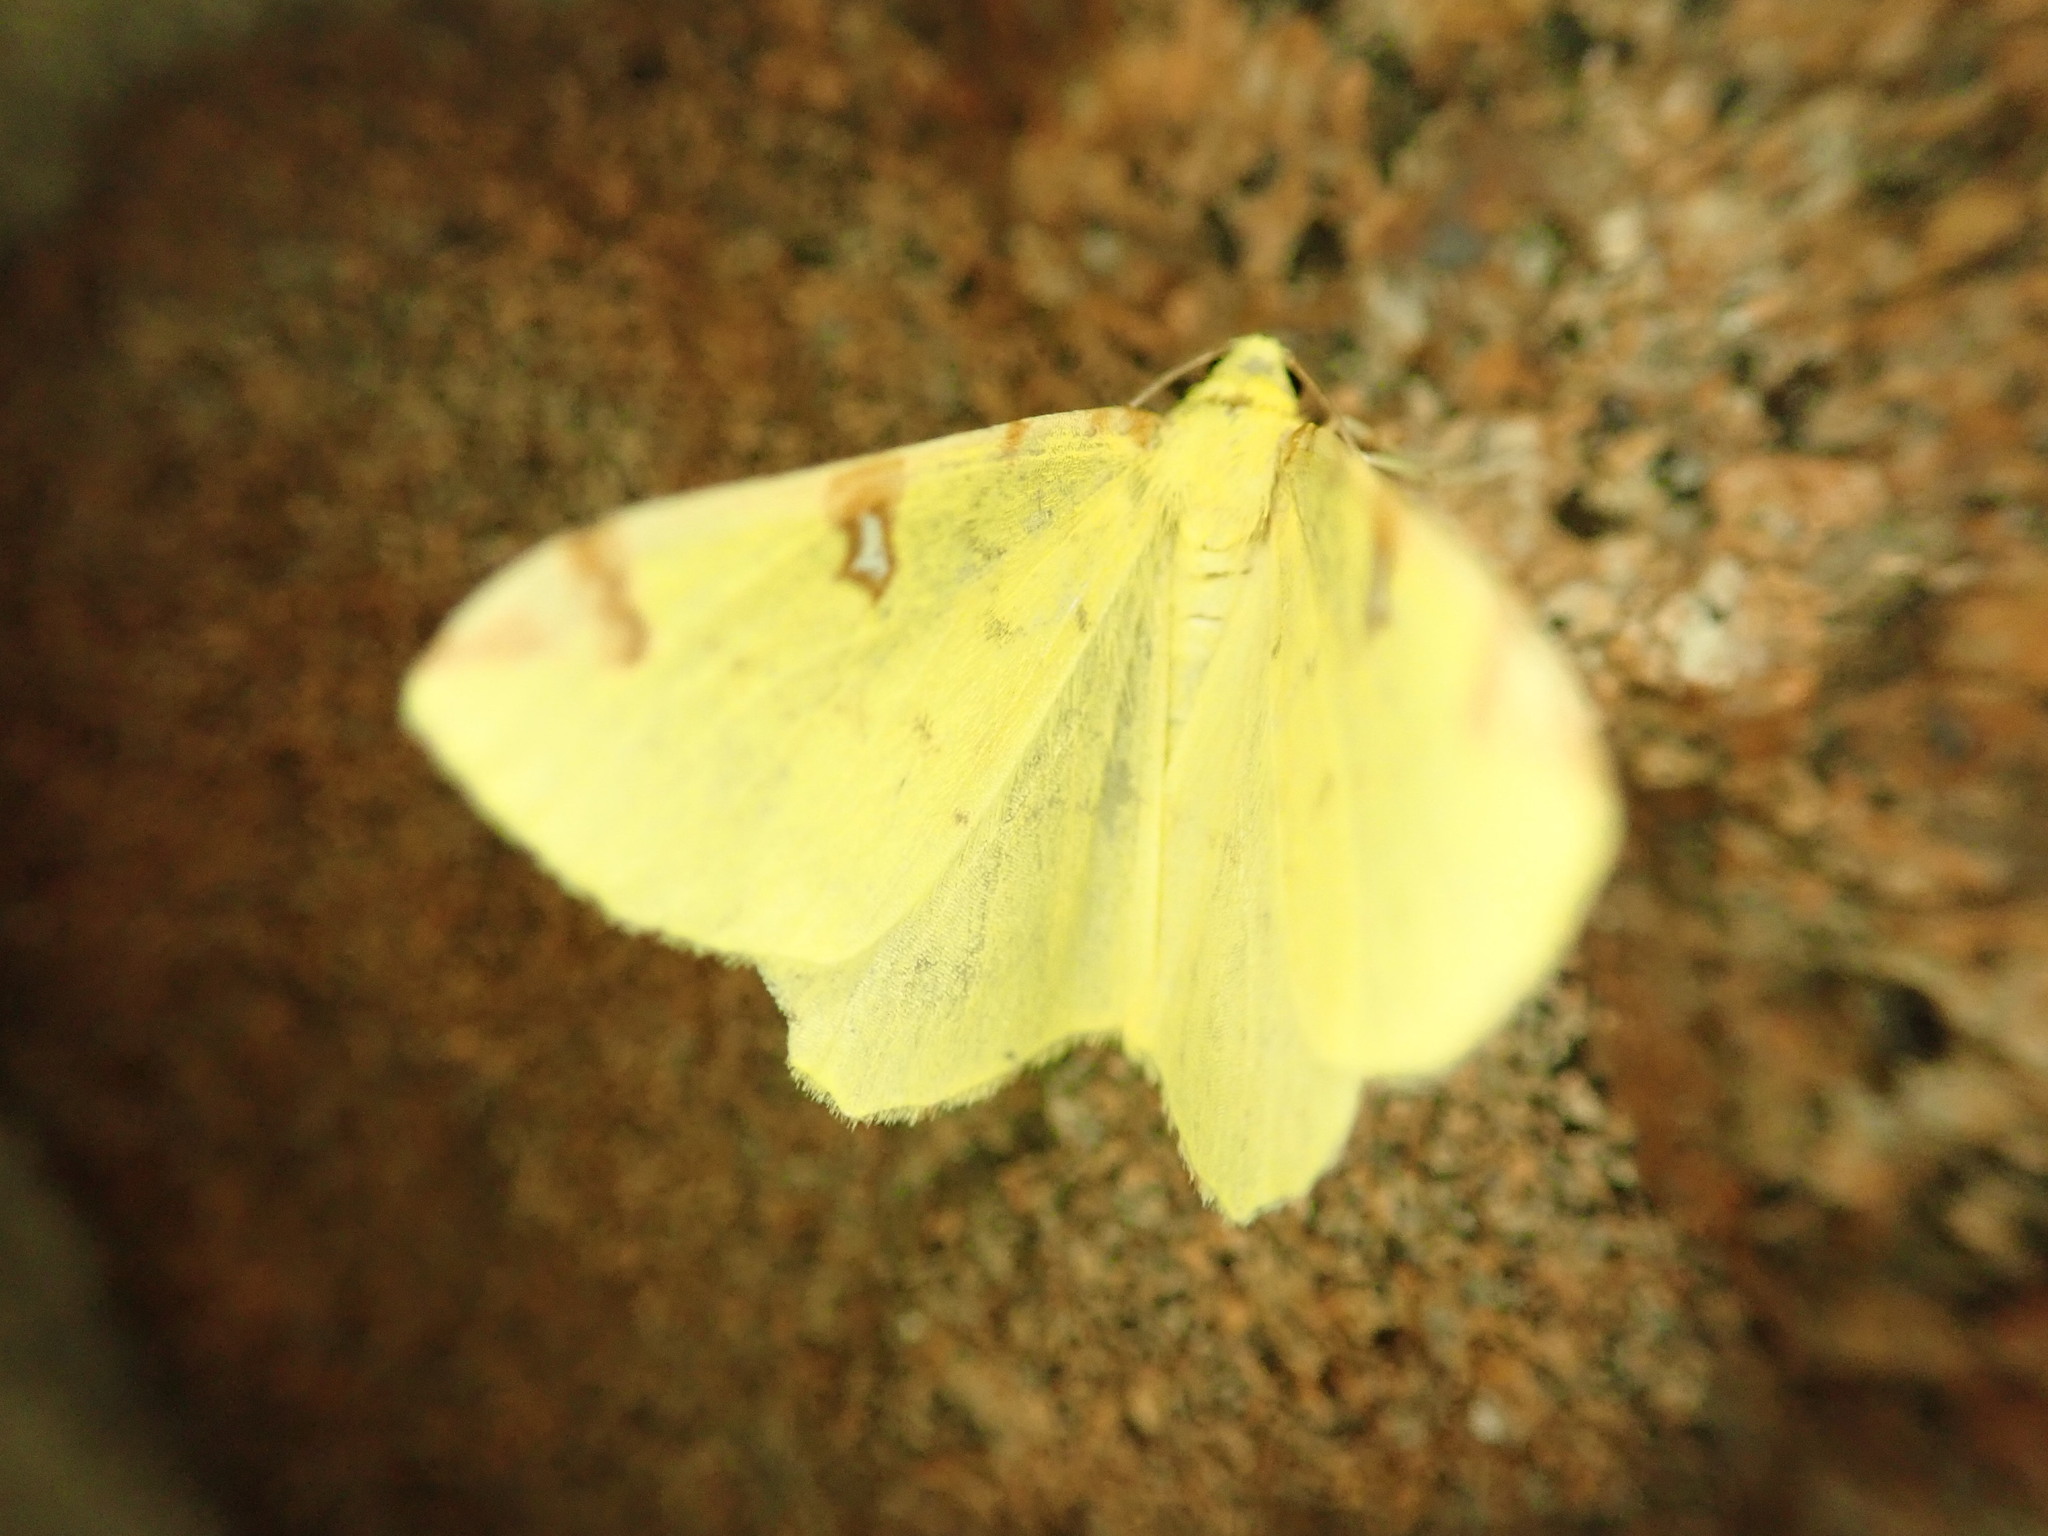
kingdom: Animalia
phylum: Arthropoda
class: Insecta
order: Lepidoptera
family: Geometridae
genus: Opisthograptis
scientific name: Opisthograptis luteolata
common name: Brimstone moth
